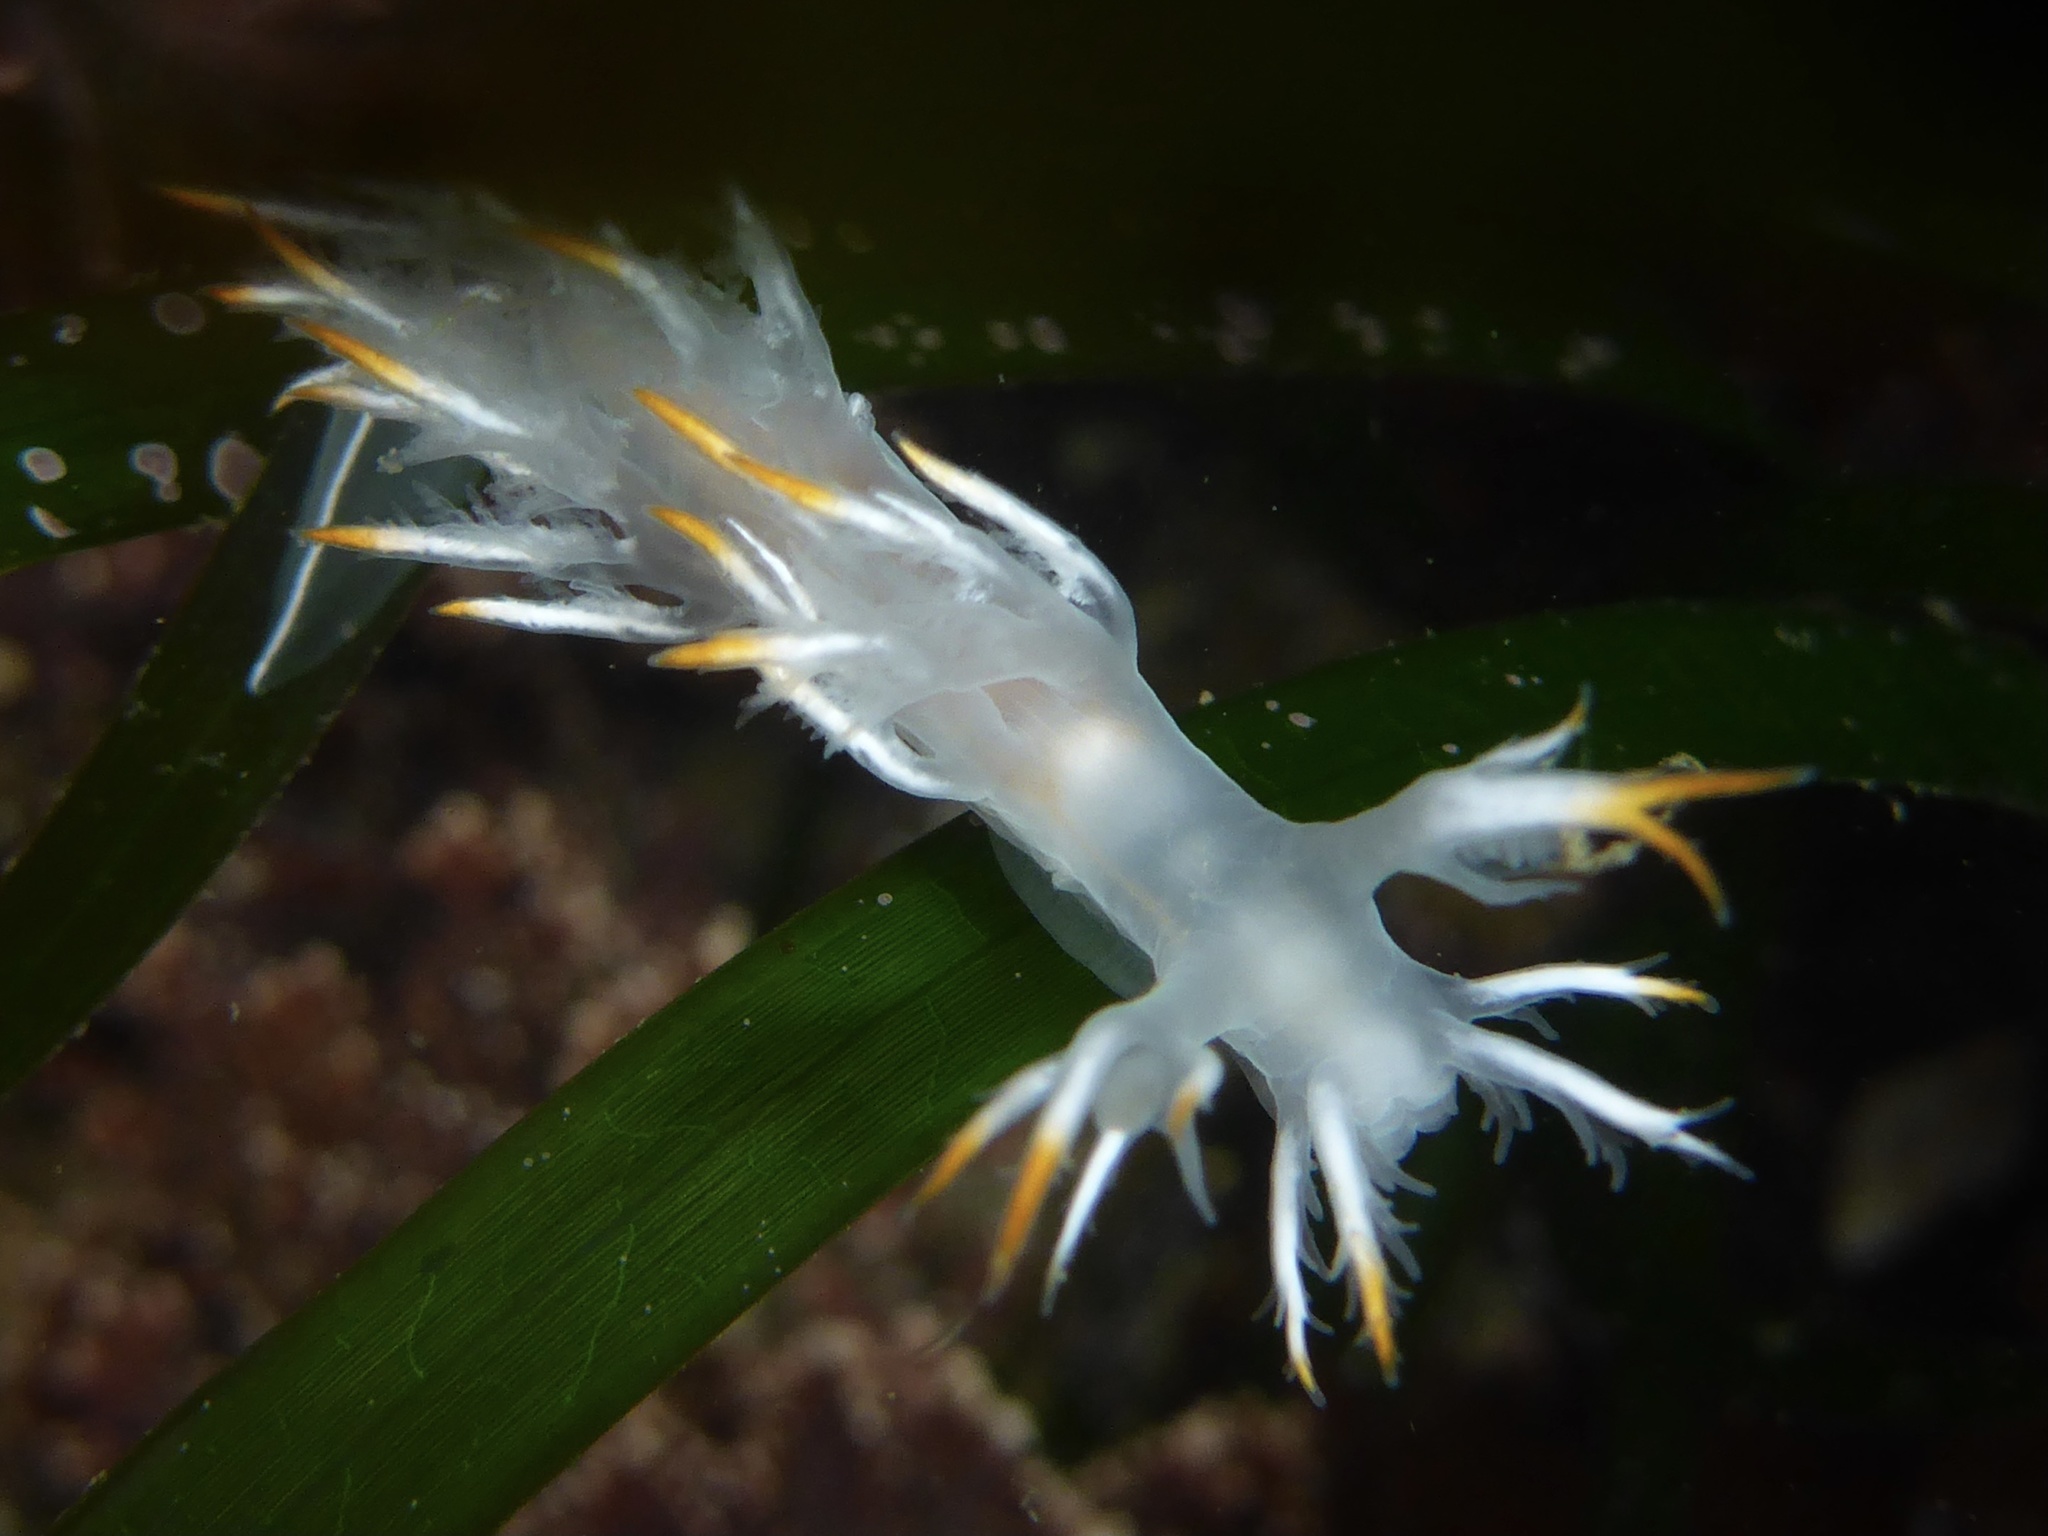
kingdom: Animalia
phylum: Mollusca
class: Gastropoda
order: Nudibranchia
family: Dendronotidae
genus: Dendronotus
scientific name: Dendronotus albus
